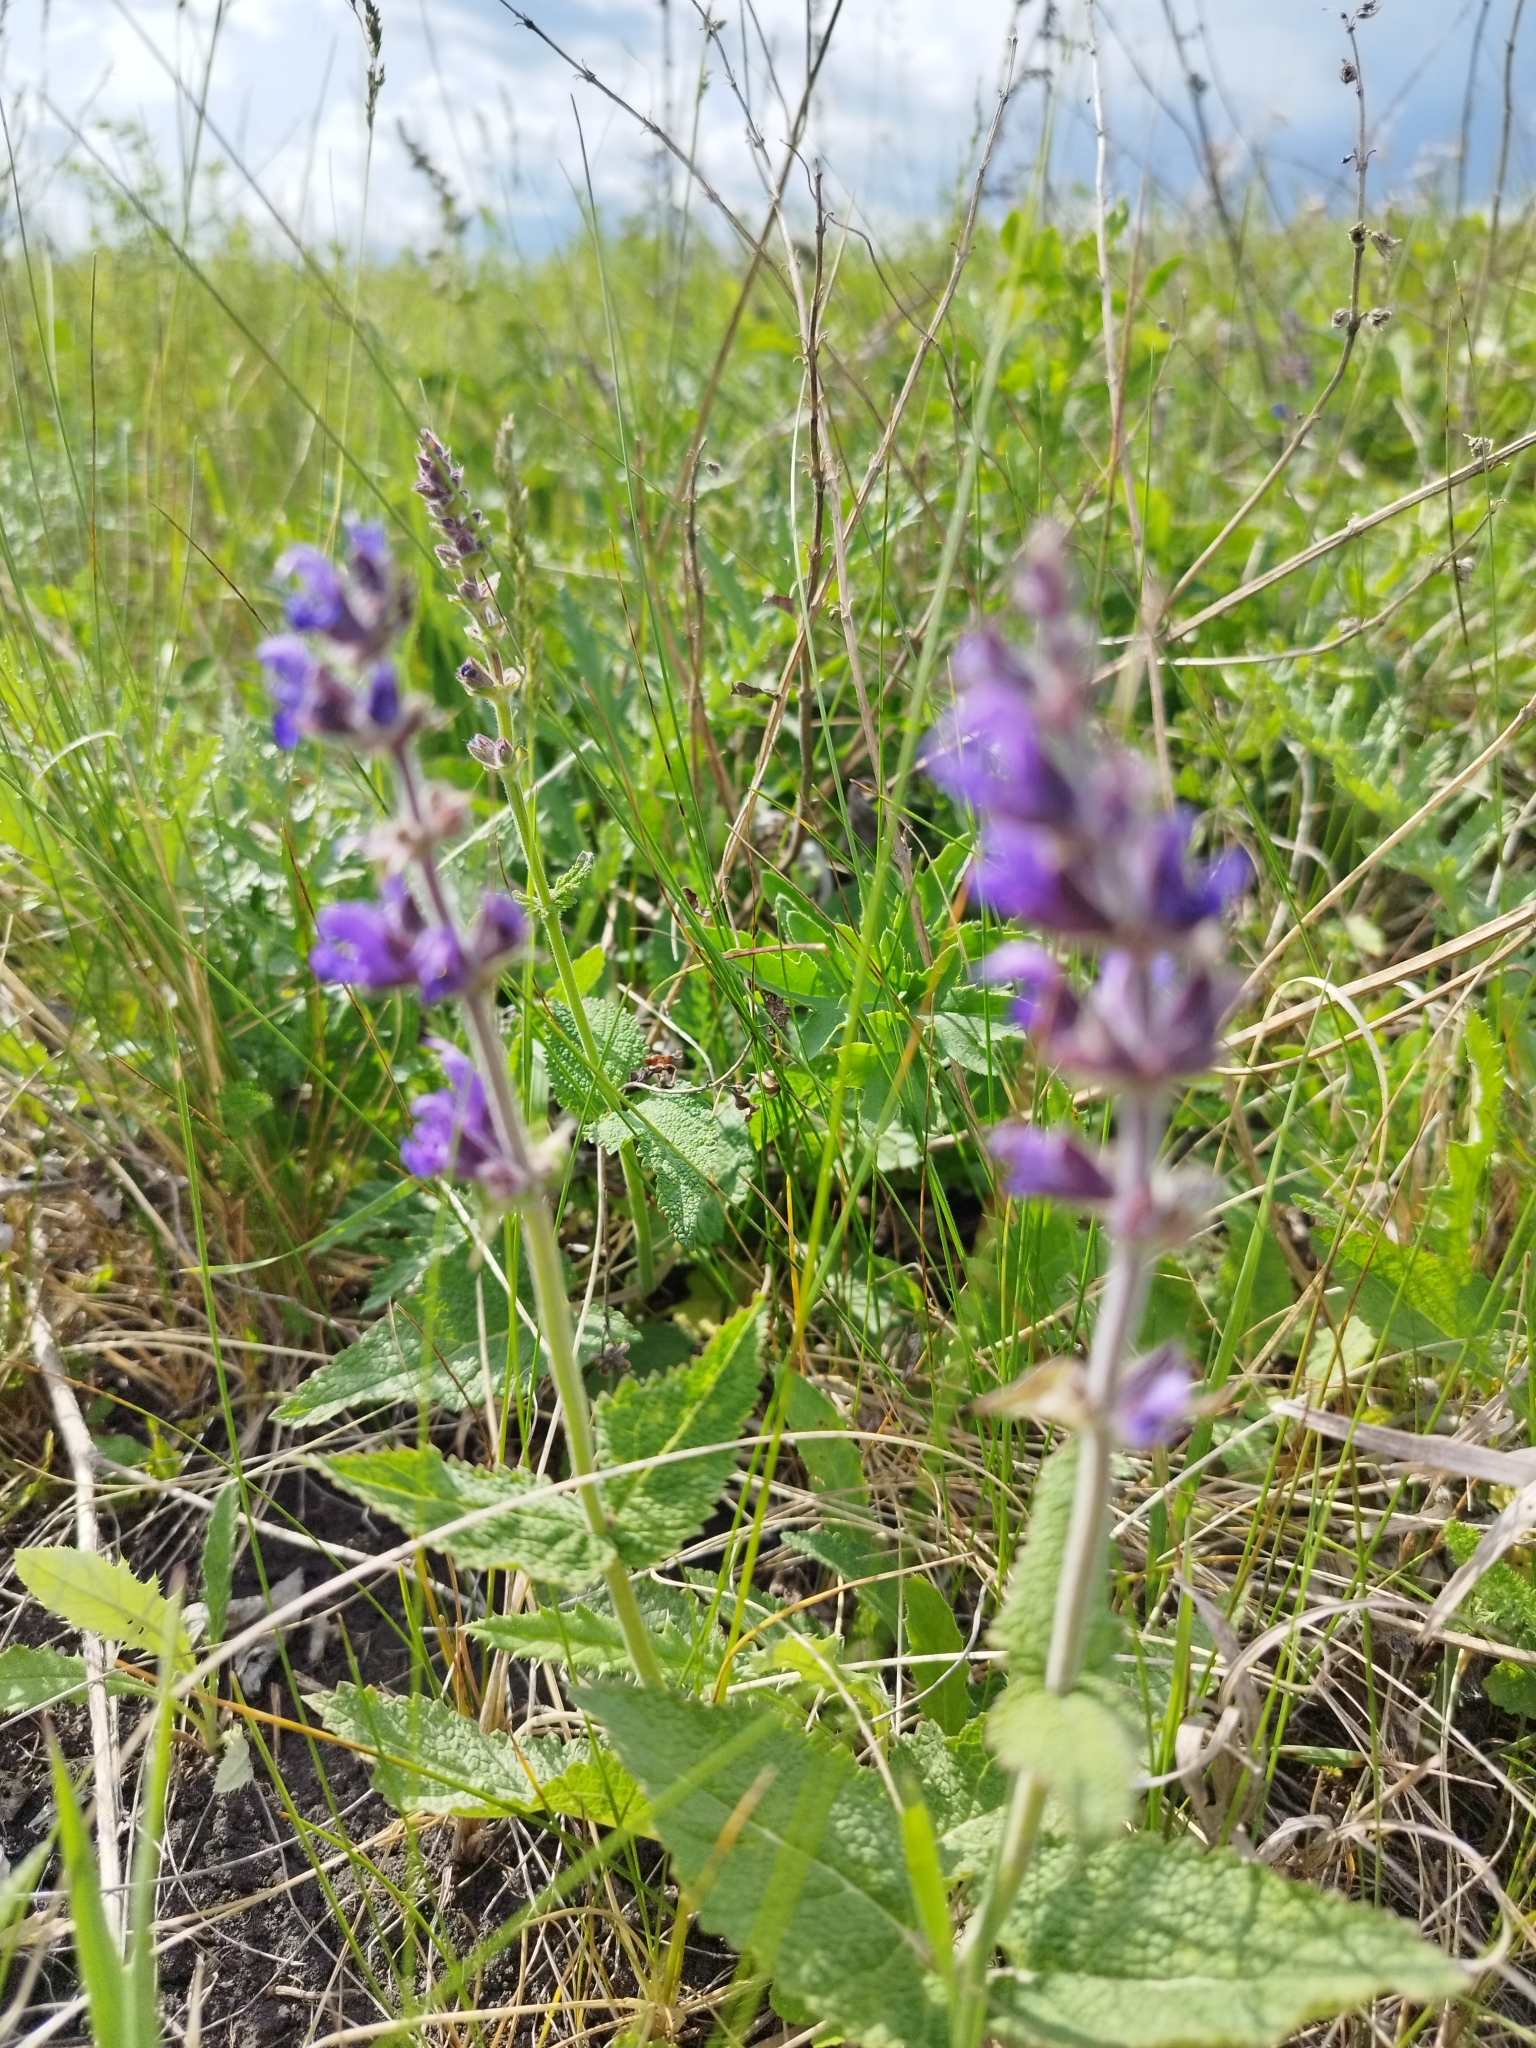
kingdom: Plantae
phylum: Tracheophyta
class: Magnoliopsida
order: Lamiales
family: Lamiaceae
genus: Salvia
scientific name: Salvia dumetorum
